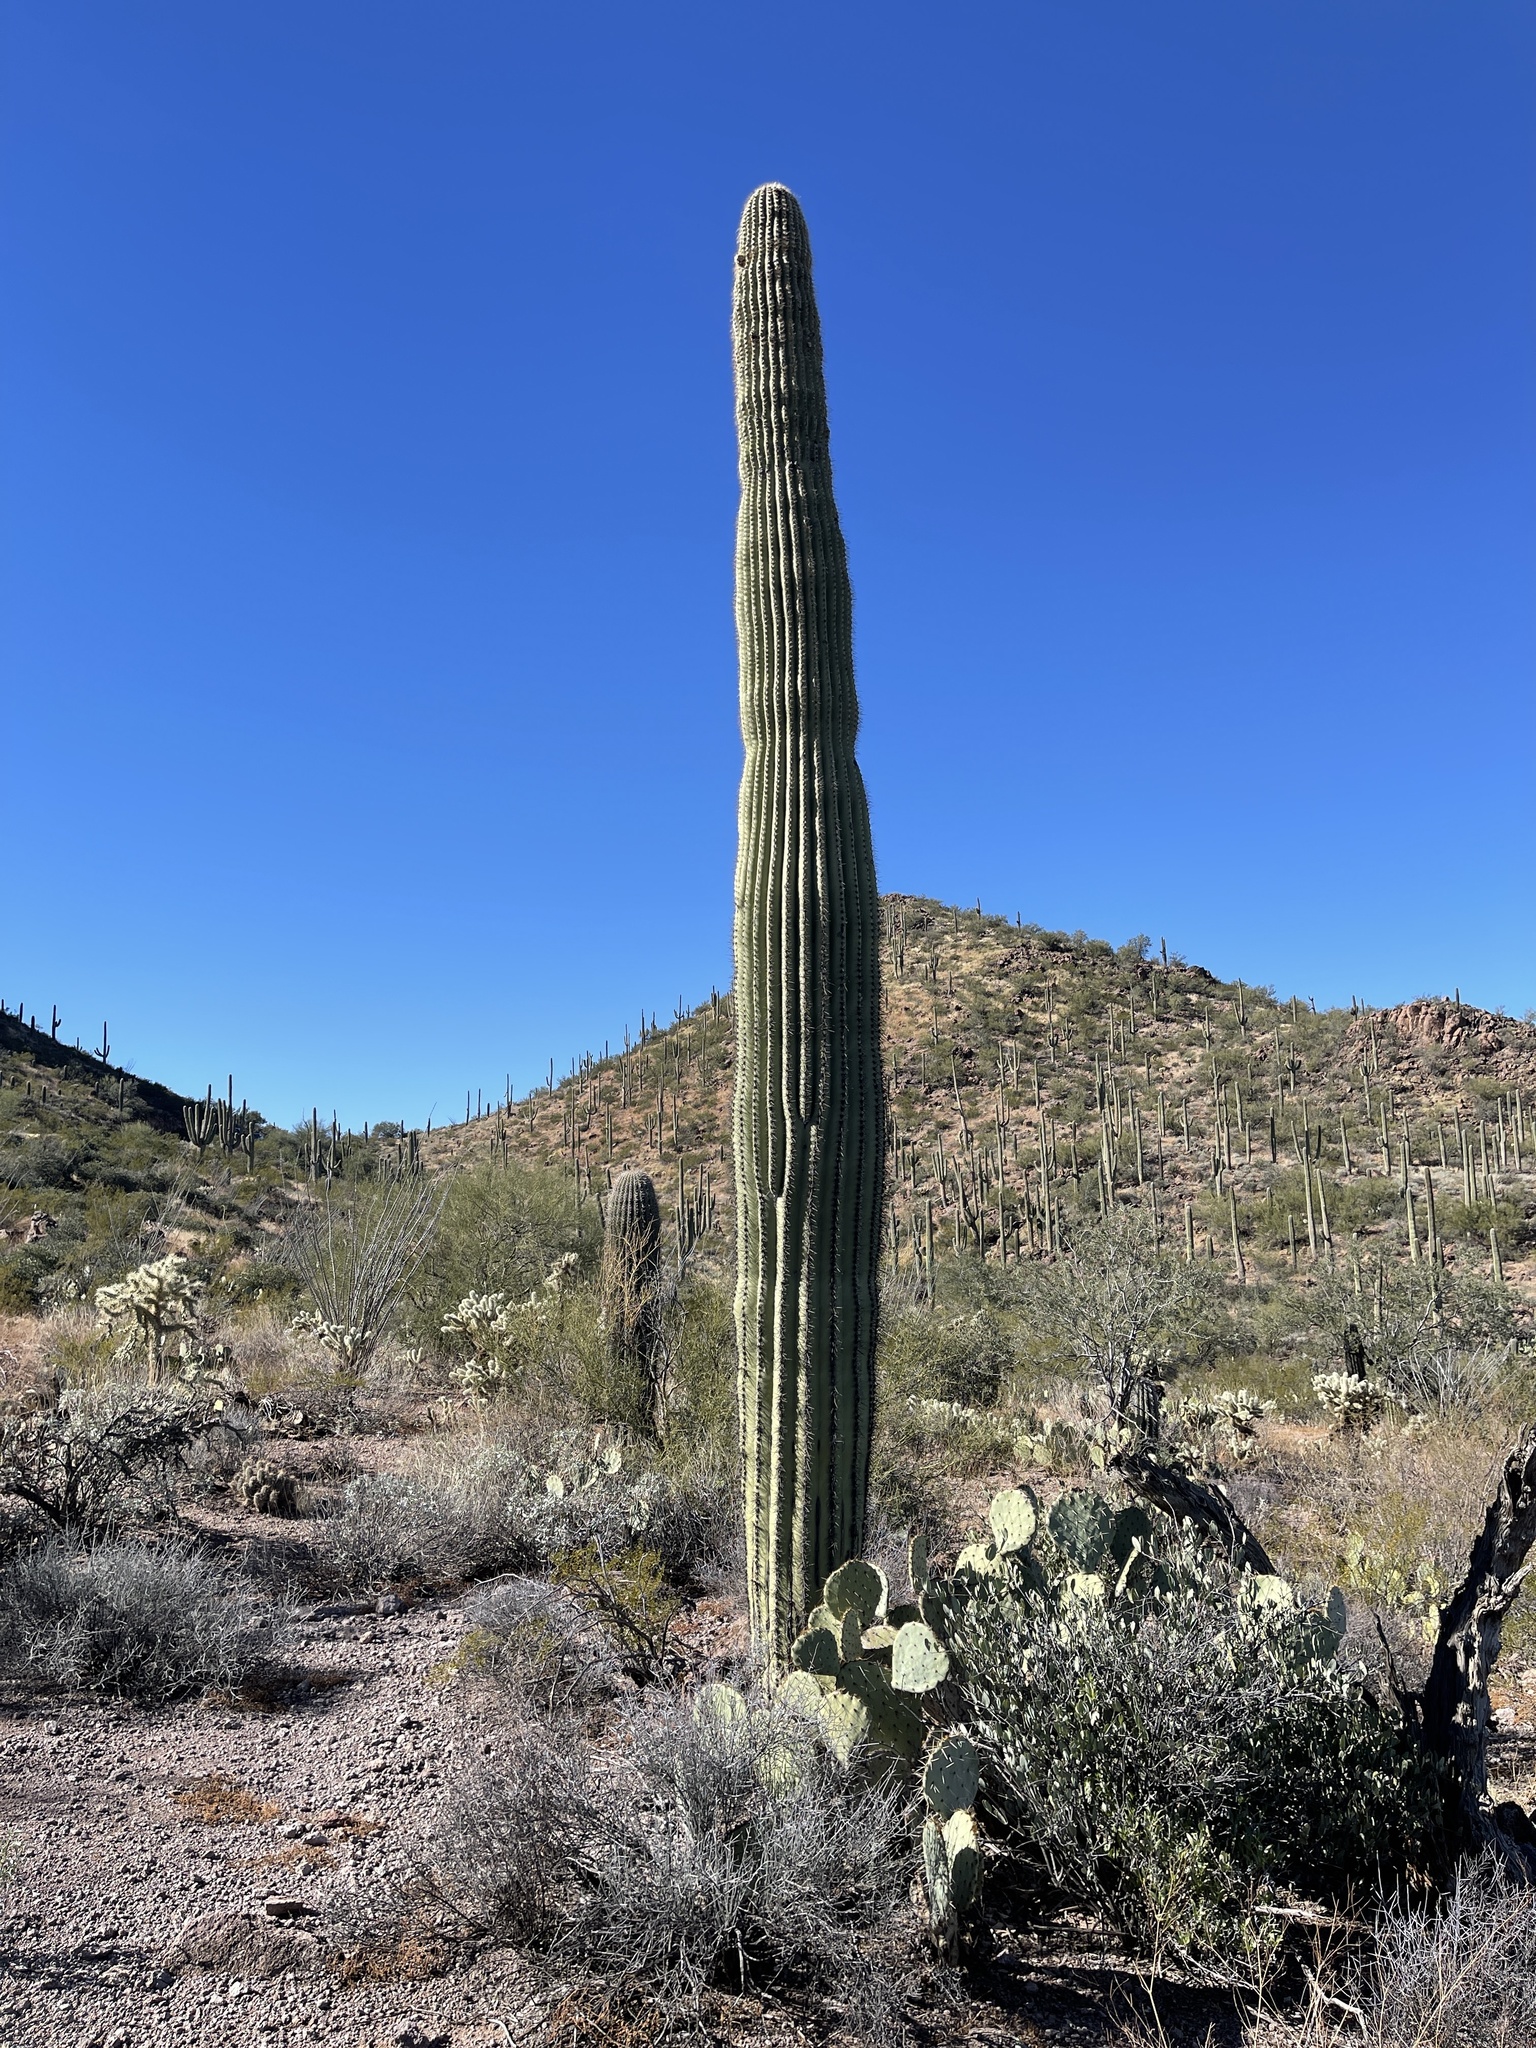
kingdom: Plantae
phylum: Tracheophyta
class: Magnoliopsida
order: Caryophyllales
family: Cactaceae
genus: Carnegiea
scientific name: Carnegiea gigantea
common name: Saguaro
